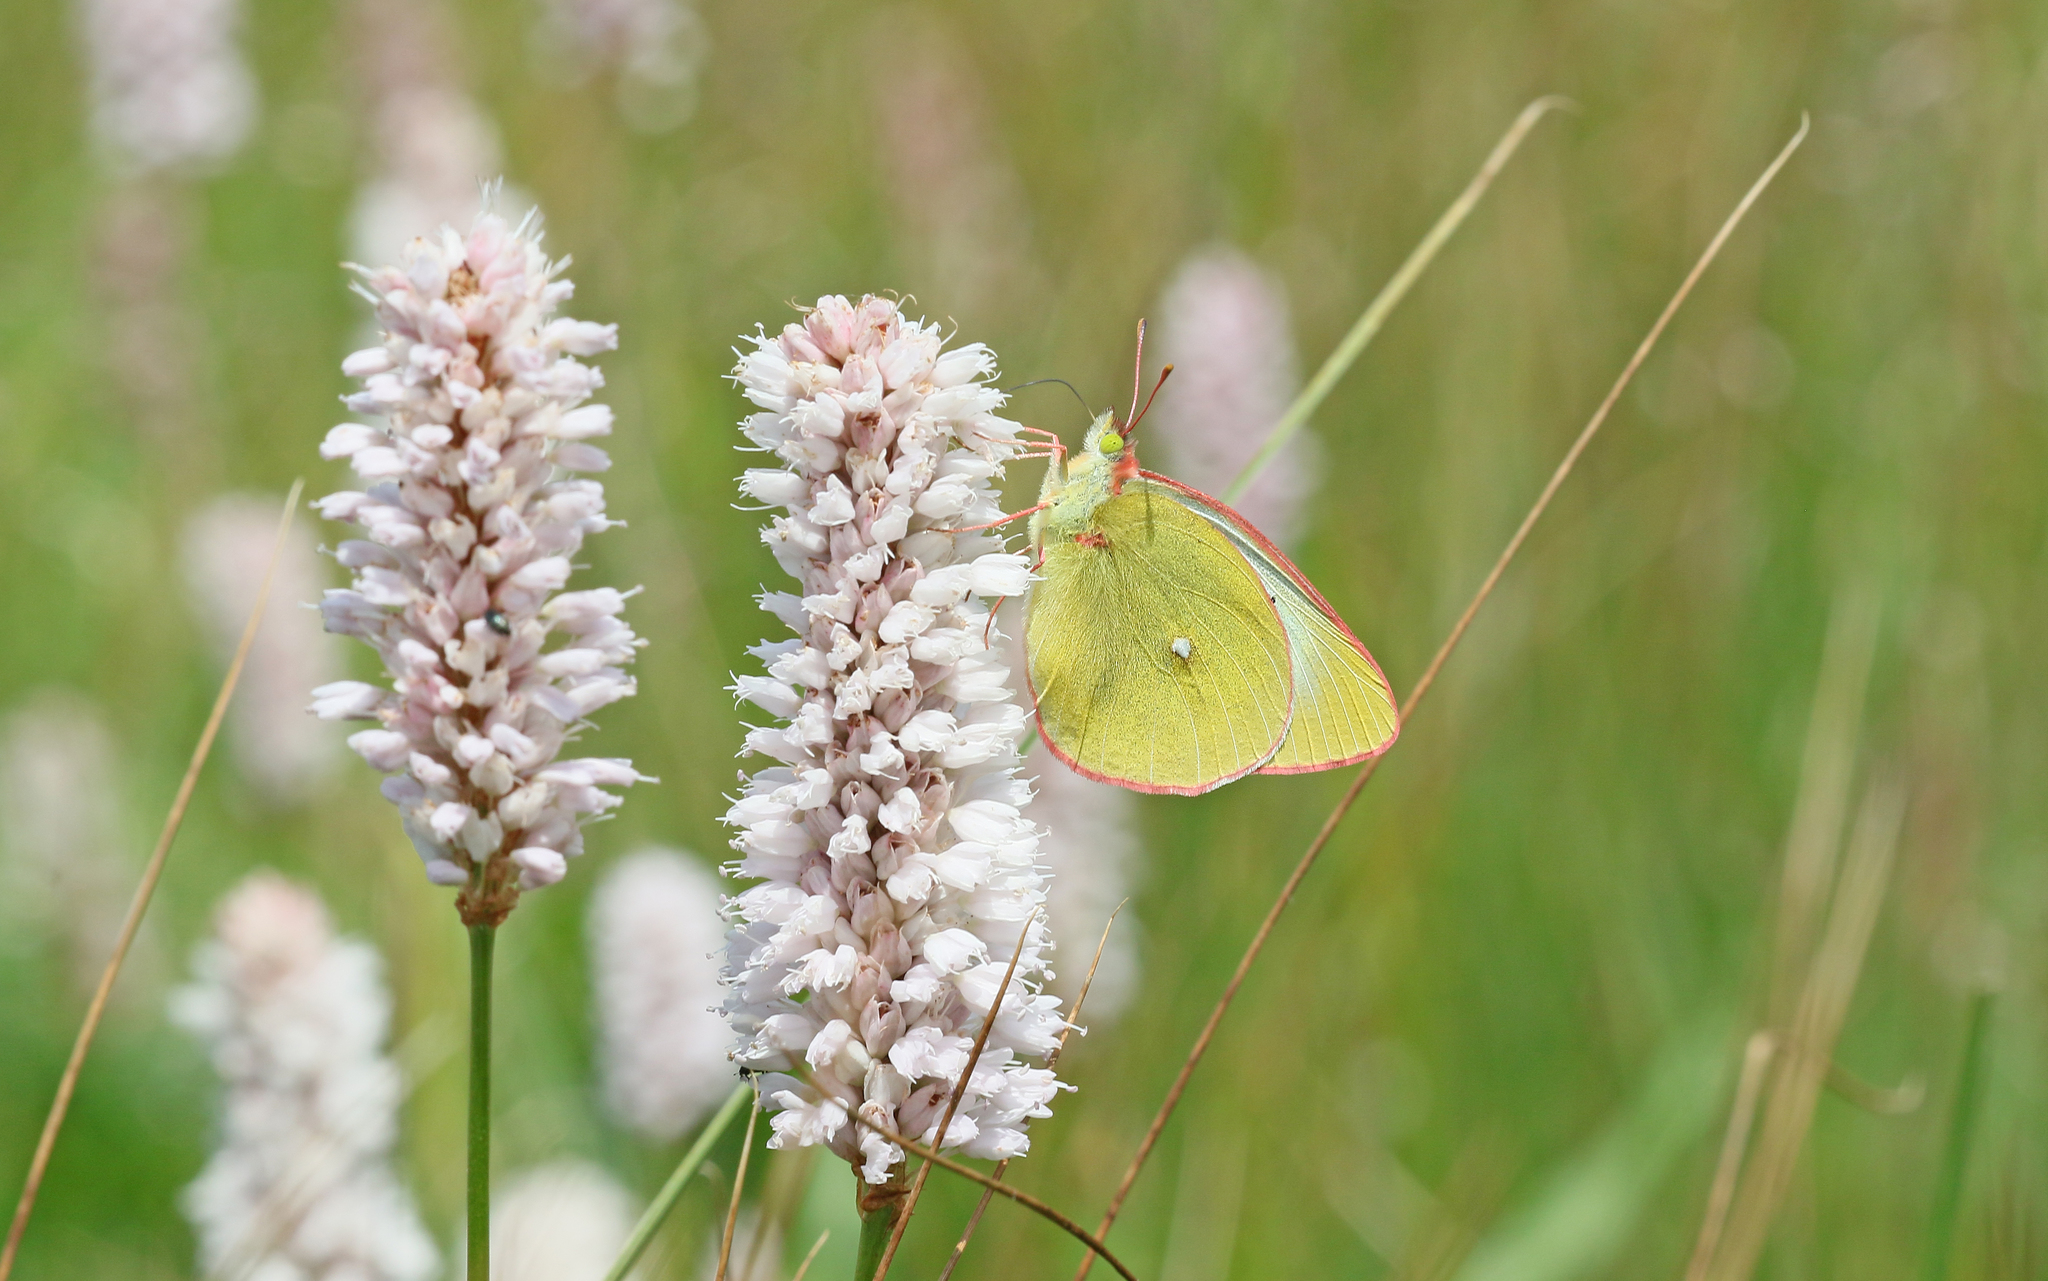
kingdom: Animalia
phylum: Arthropoda
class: Insecta
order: Lepidoptera
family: Pieridae
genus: Colias
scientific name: Colias palaeno
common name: Moorland clouded yellow
